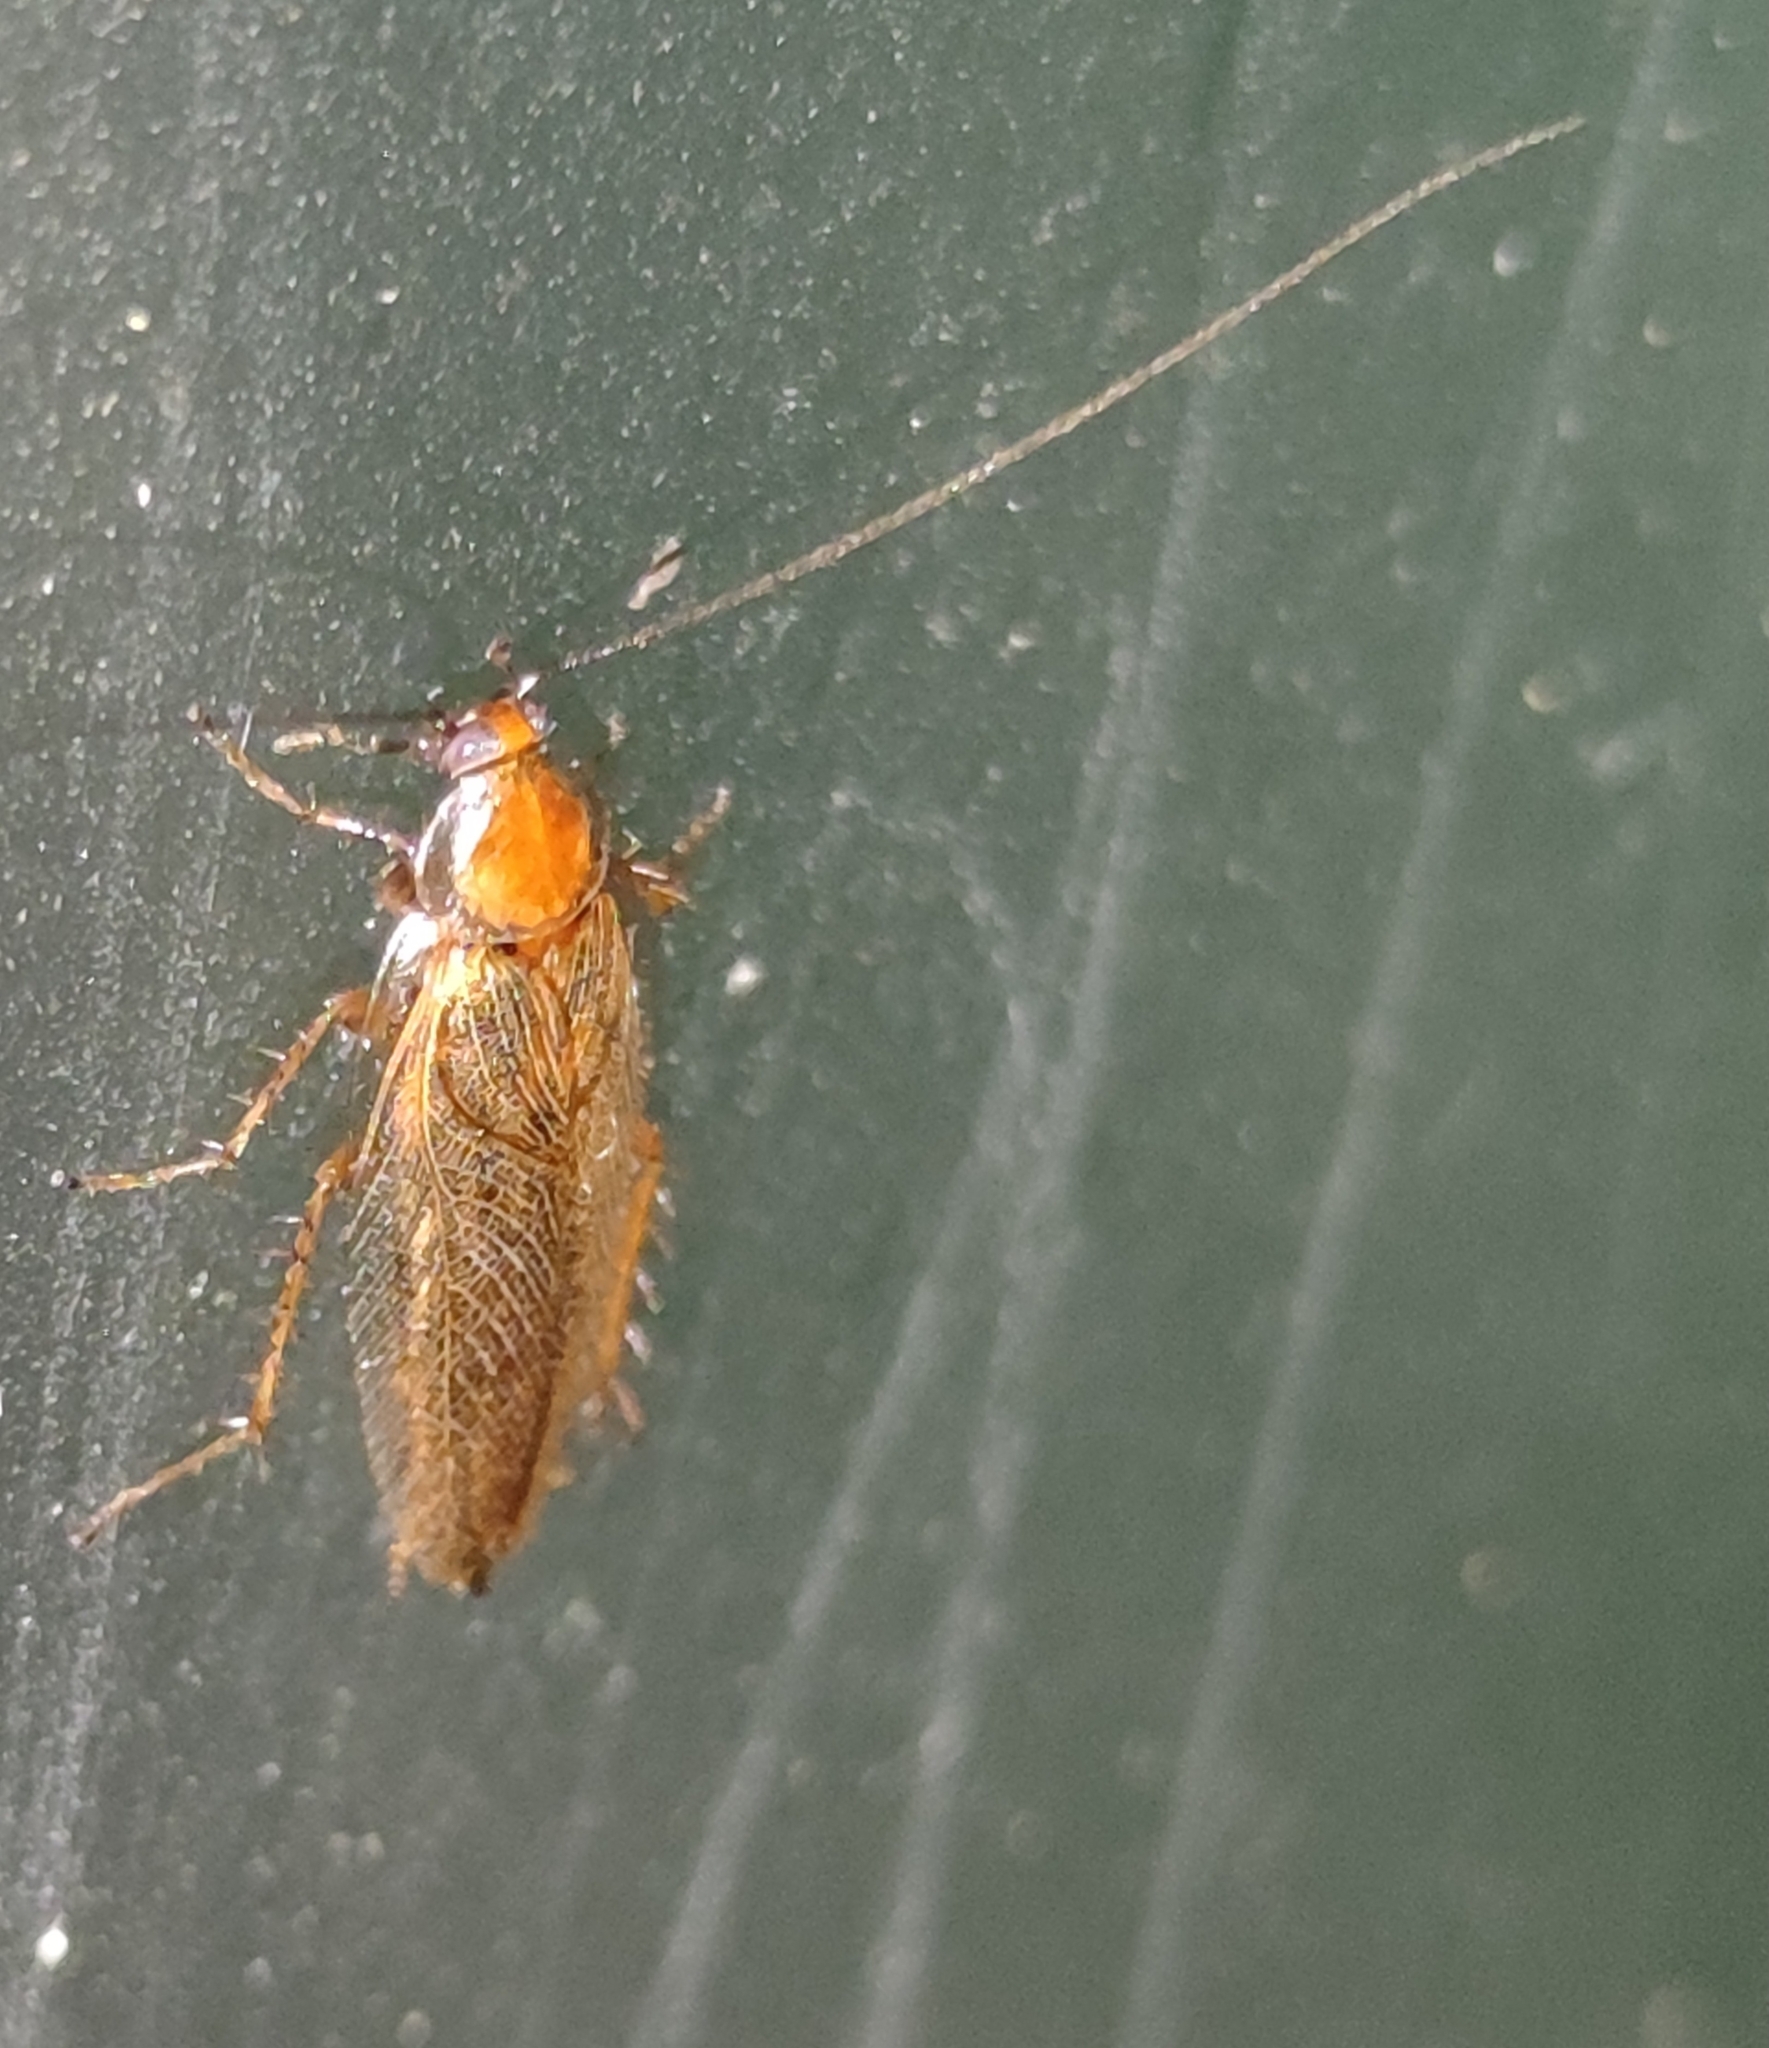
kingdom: Animalia
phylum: Arthropoda
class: Insecta
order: Blattodea
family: Ectobiidae
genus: Ectobius
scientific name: Ectobius vittiventris
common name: Garden cockroach
